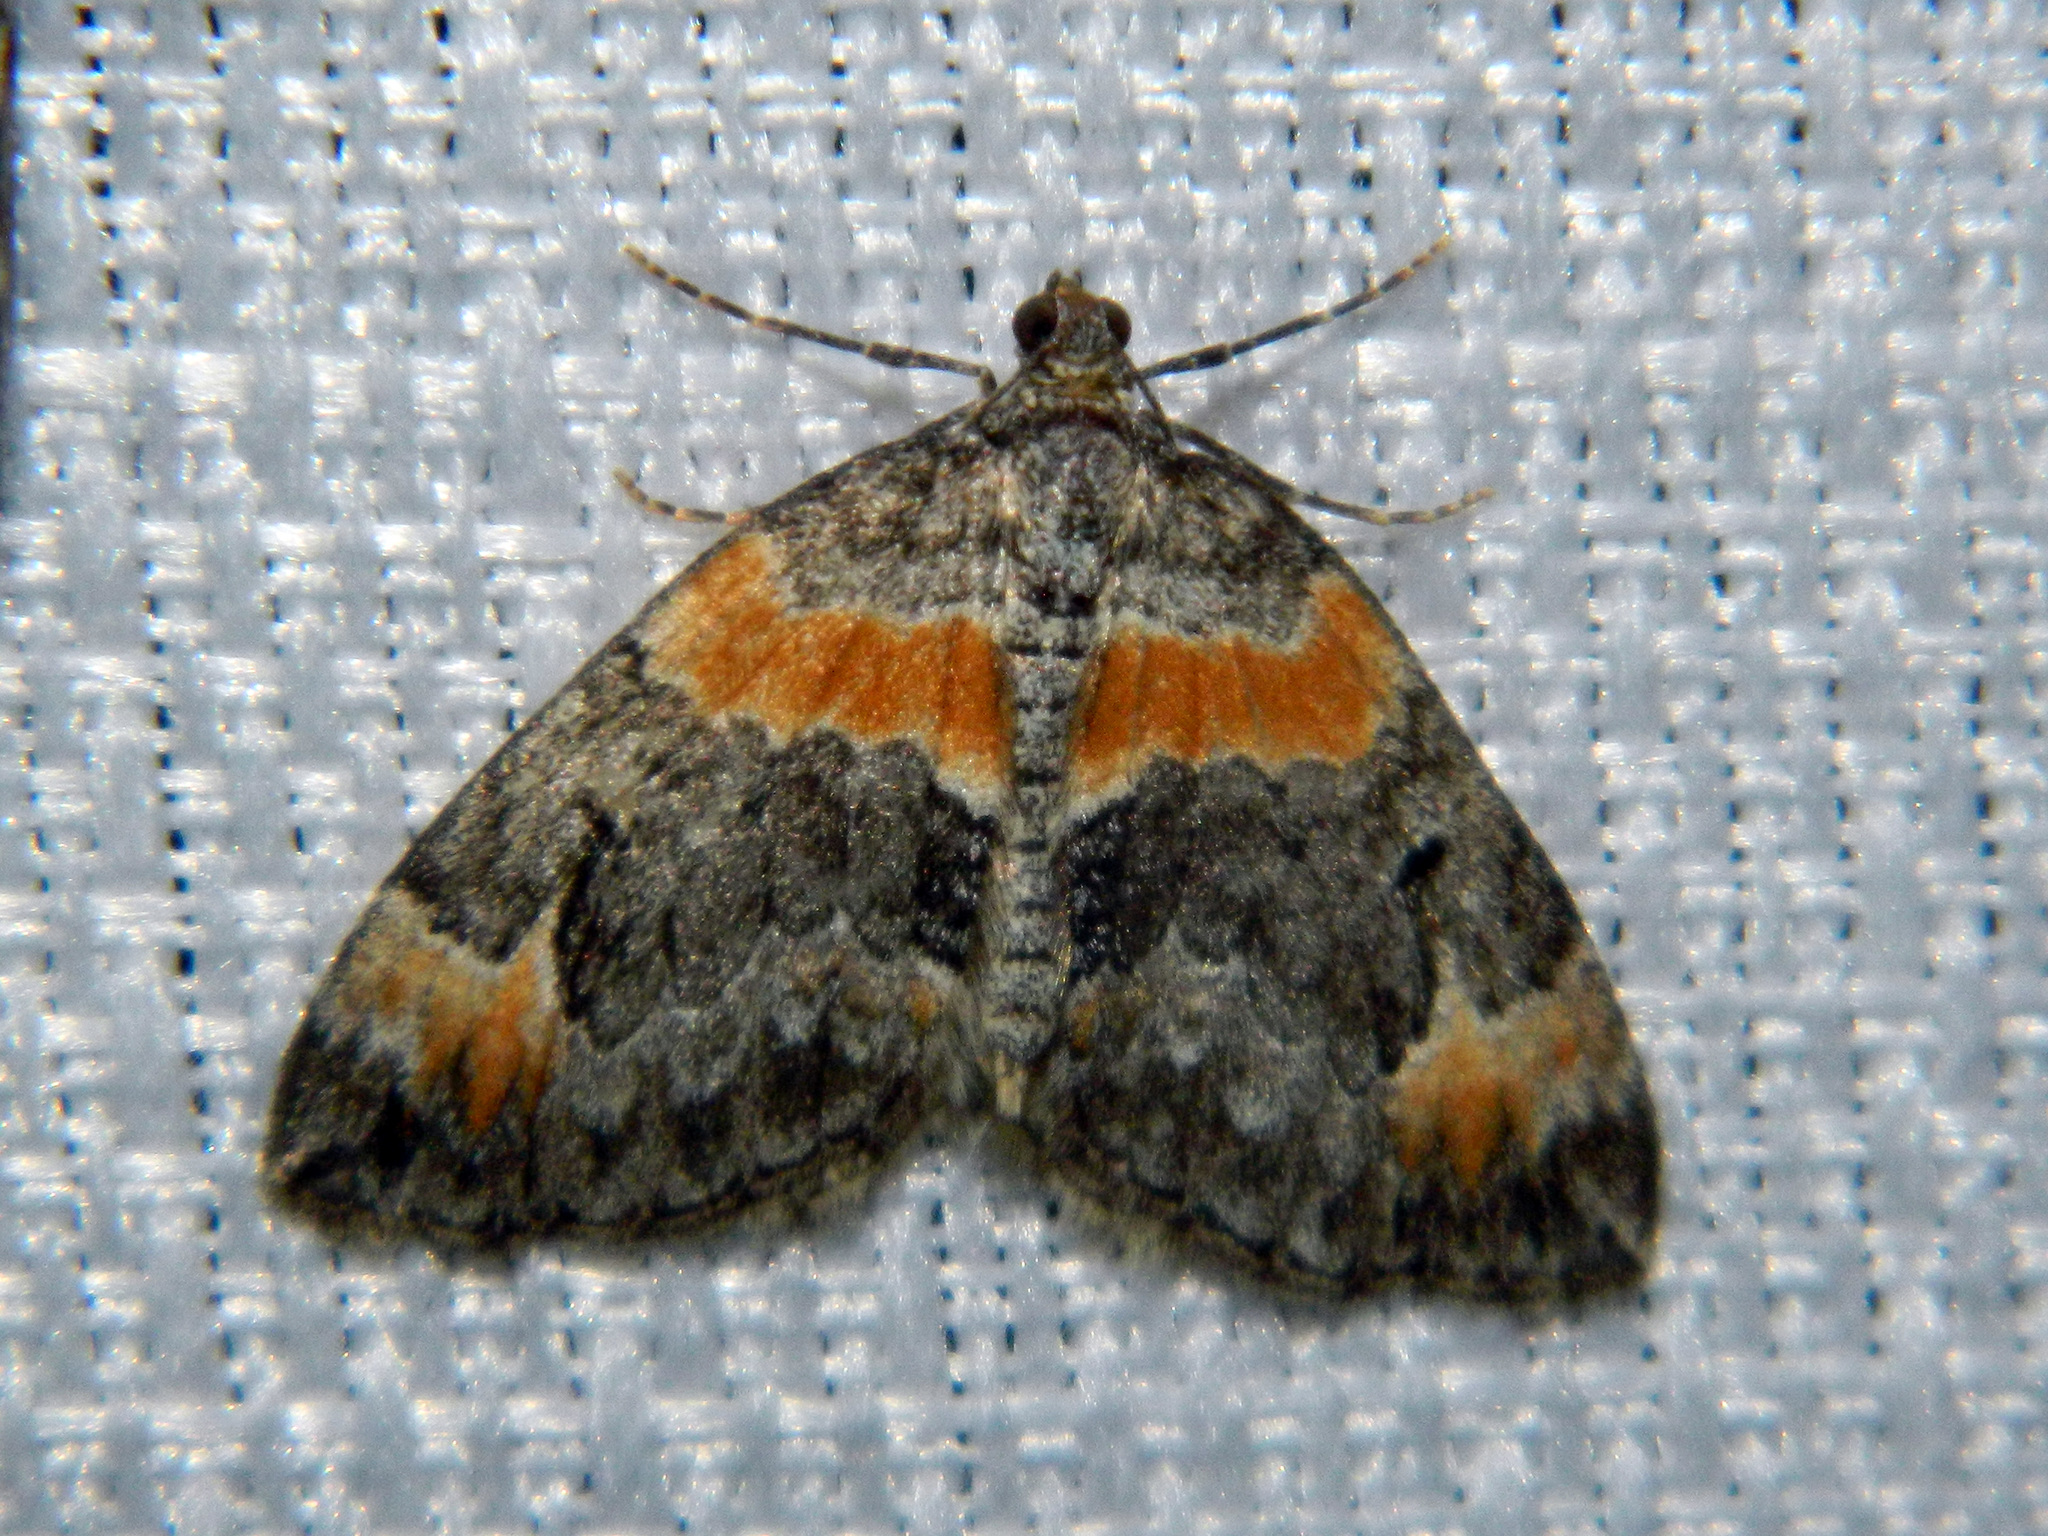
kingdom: Animalia
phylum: Arthropoda
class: Insecta
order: Lepidoptera
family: Geometridae
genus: Dysstroma
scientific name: Dysstroma hersiliata
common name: Orange-barred carpet
